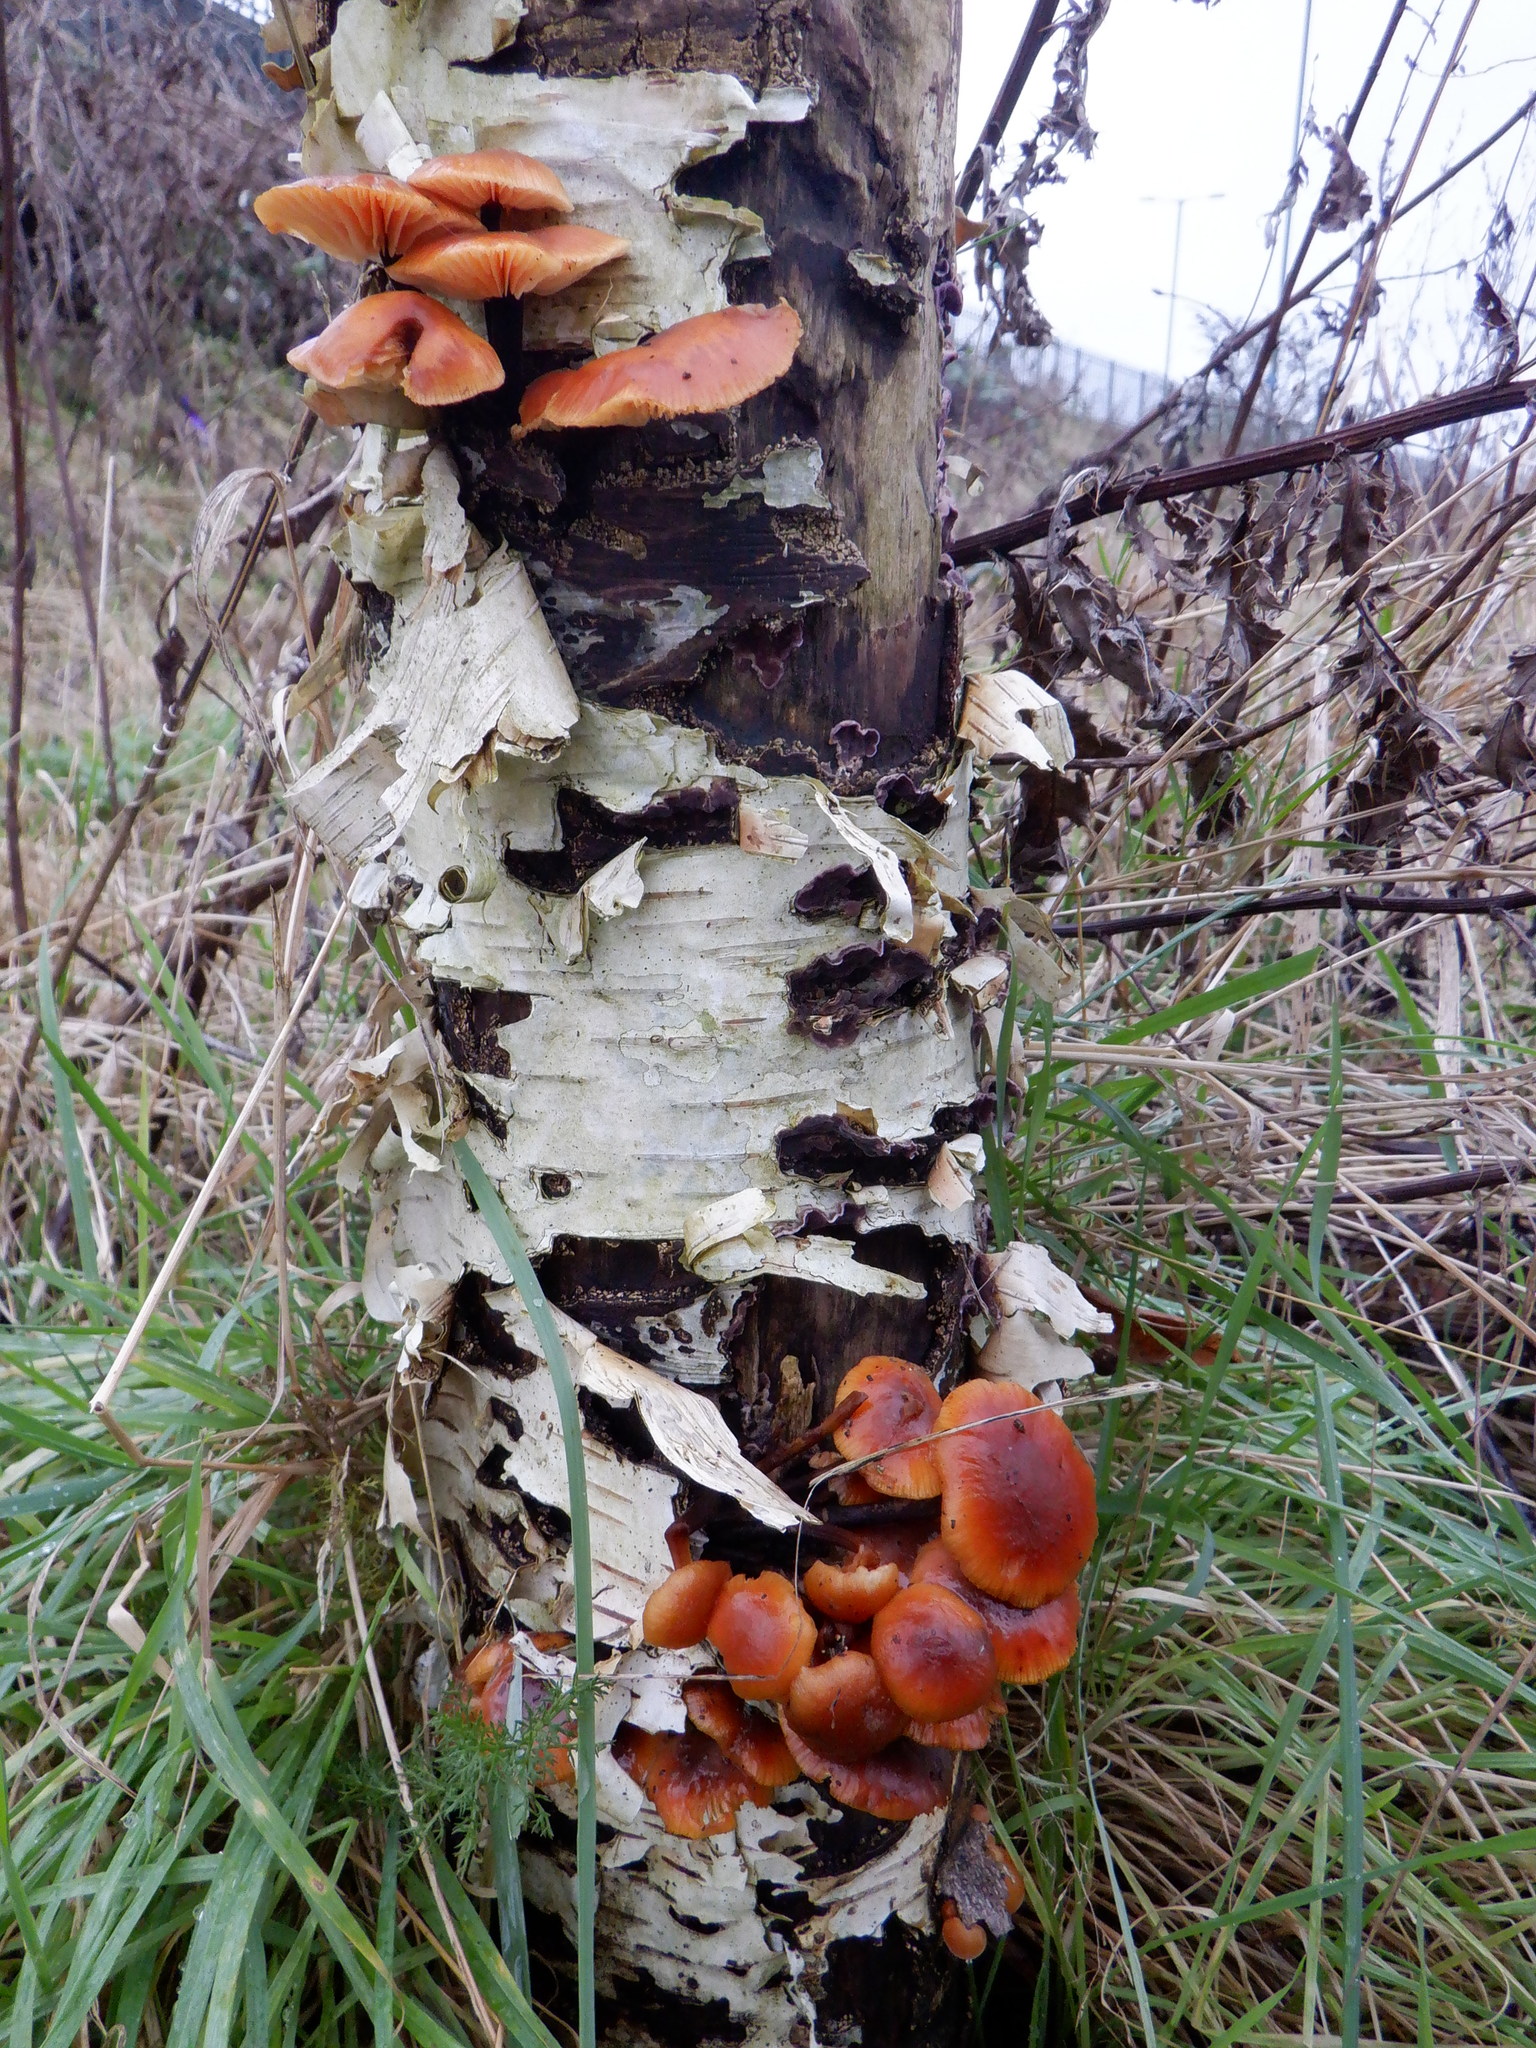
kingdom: Fungi
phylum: Basidiomycota
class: Agaricomycetes
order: Agaricales
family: Physalacriaceae
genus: Flammulina
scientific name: Flammulina
